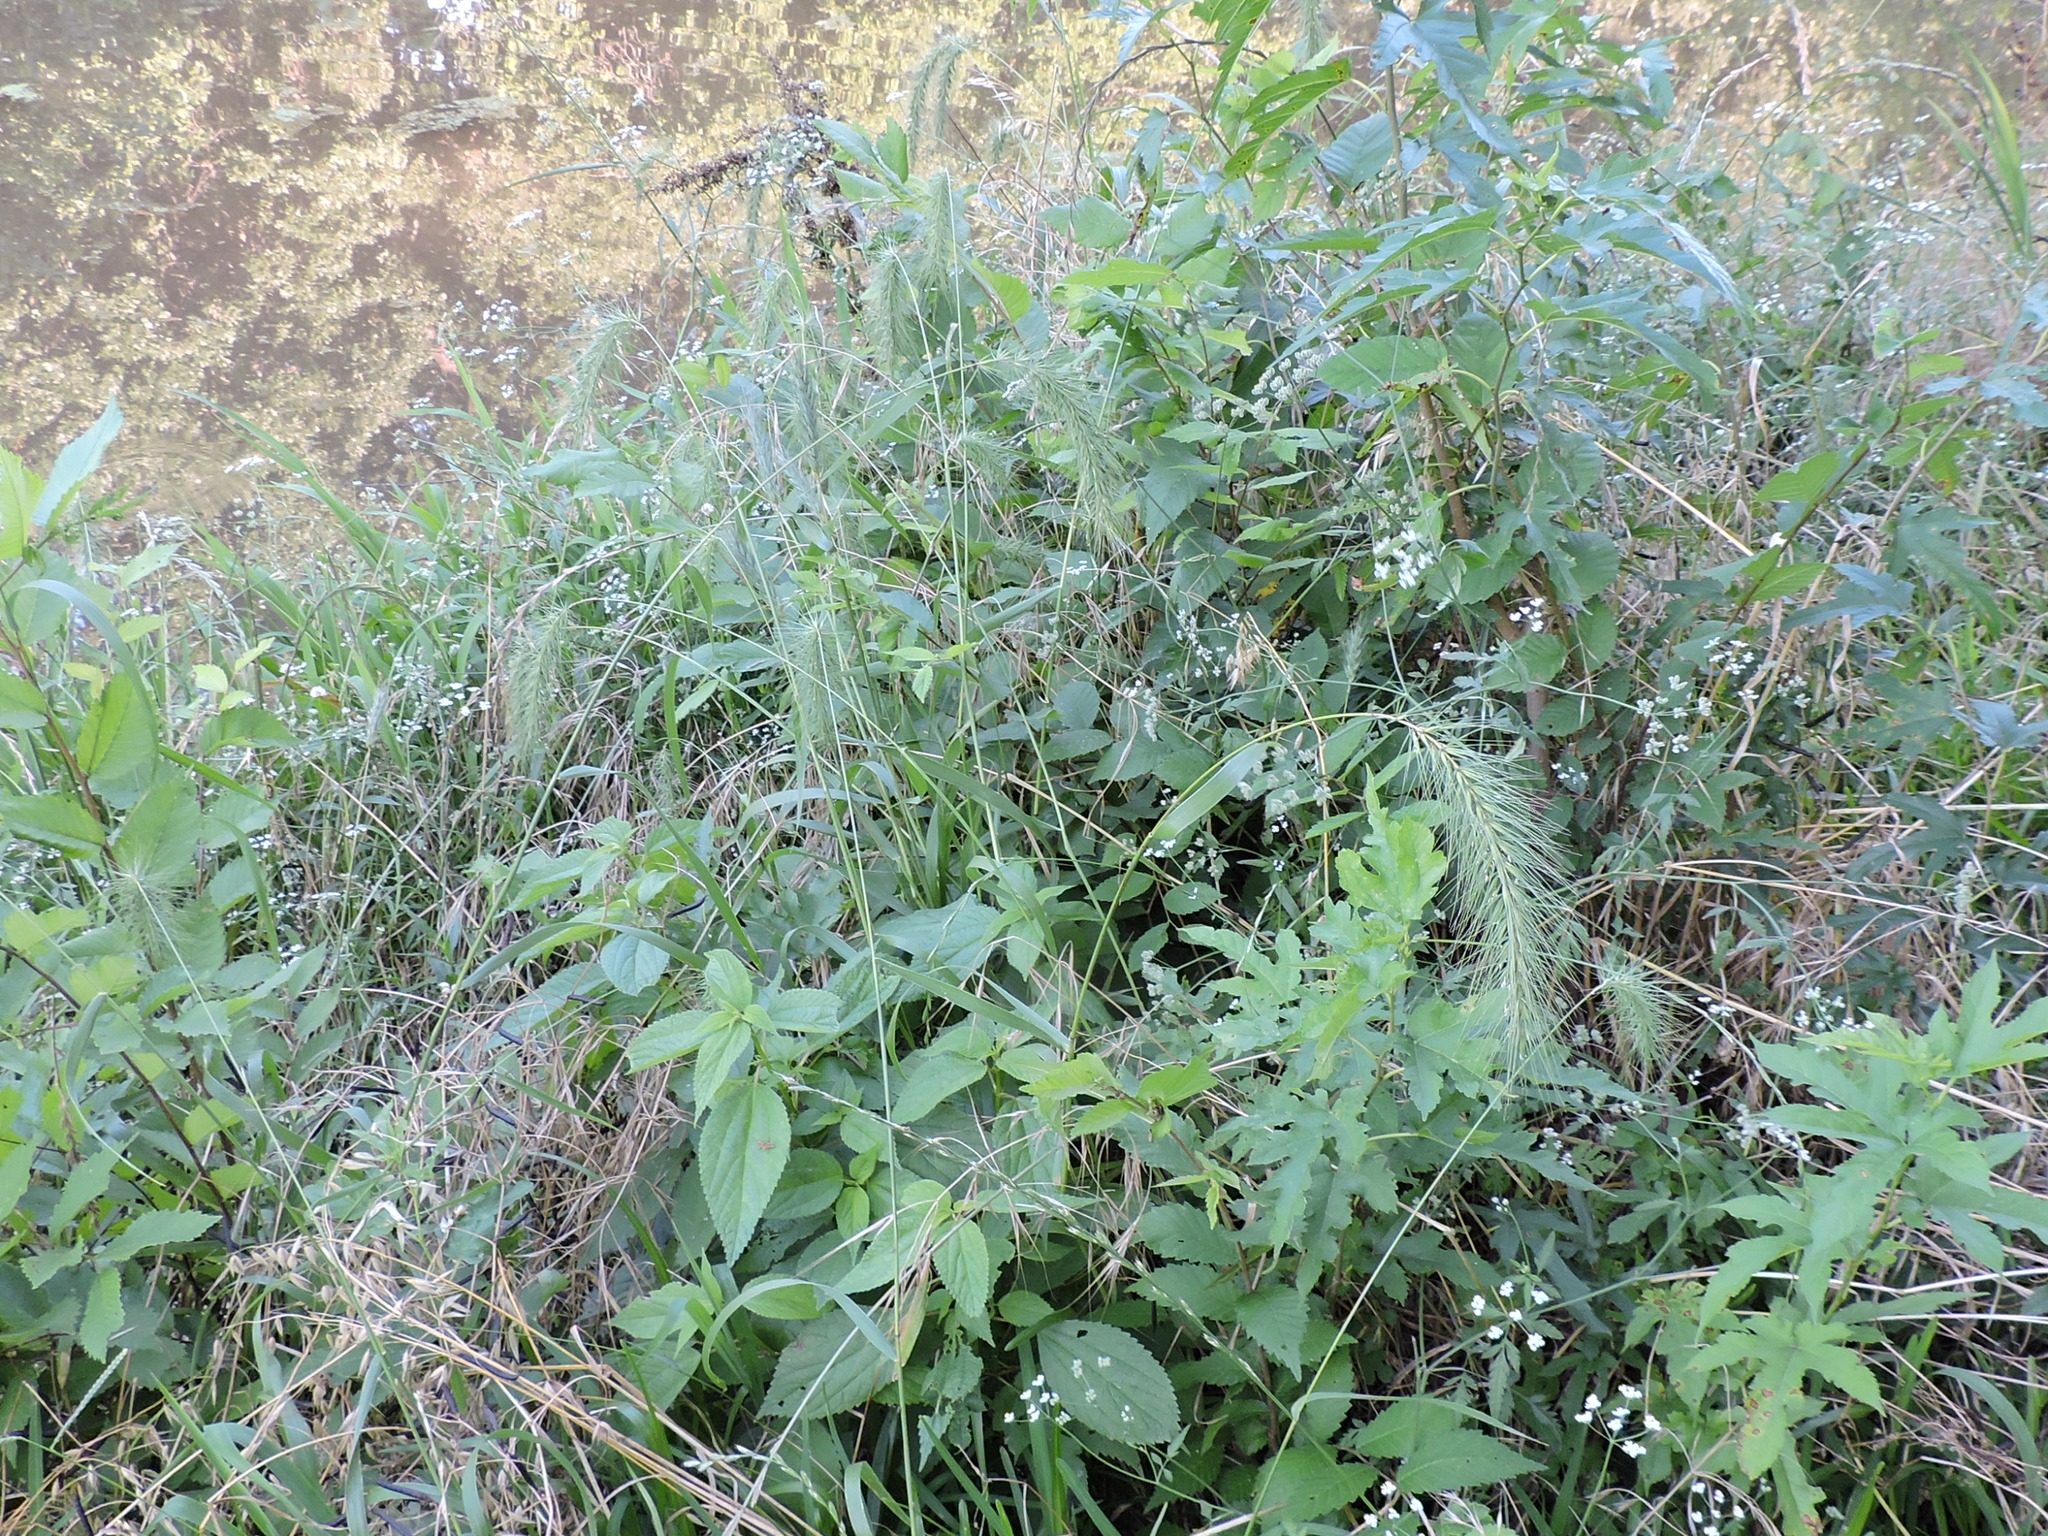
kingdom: Plantae
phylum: Tracheophyta
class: Liliopsida
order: Poales
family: Poaceae
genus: Elymus
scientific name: Elymus canadensis
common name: Canada wild rye
